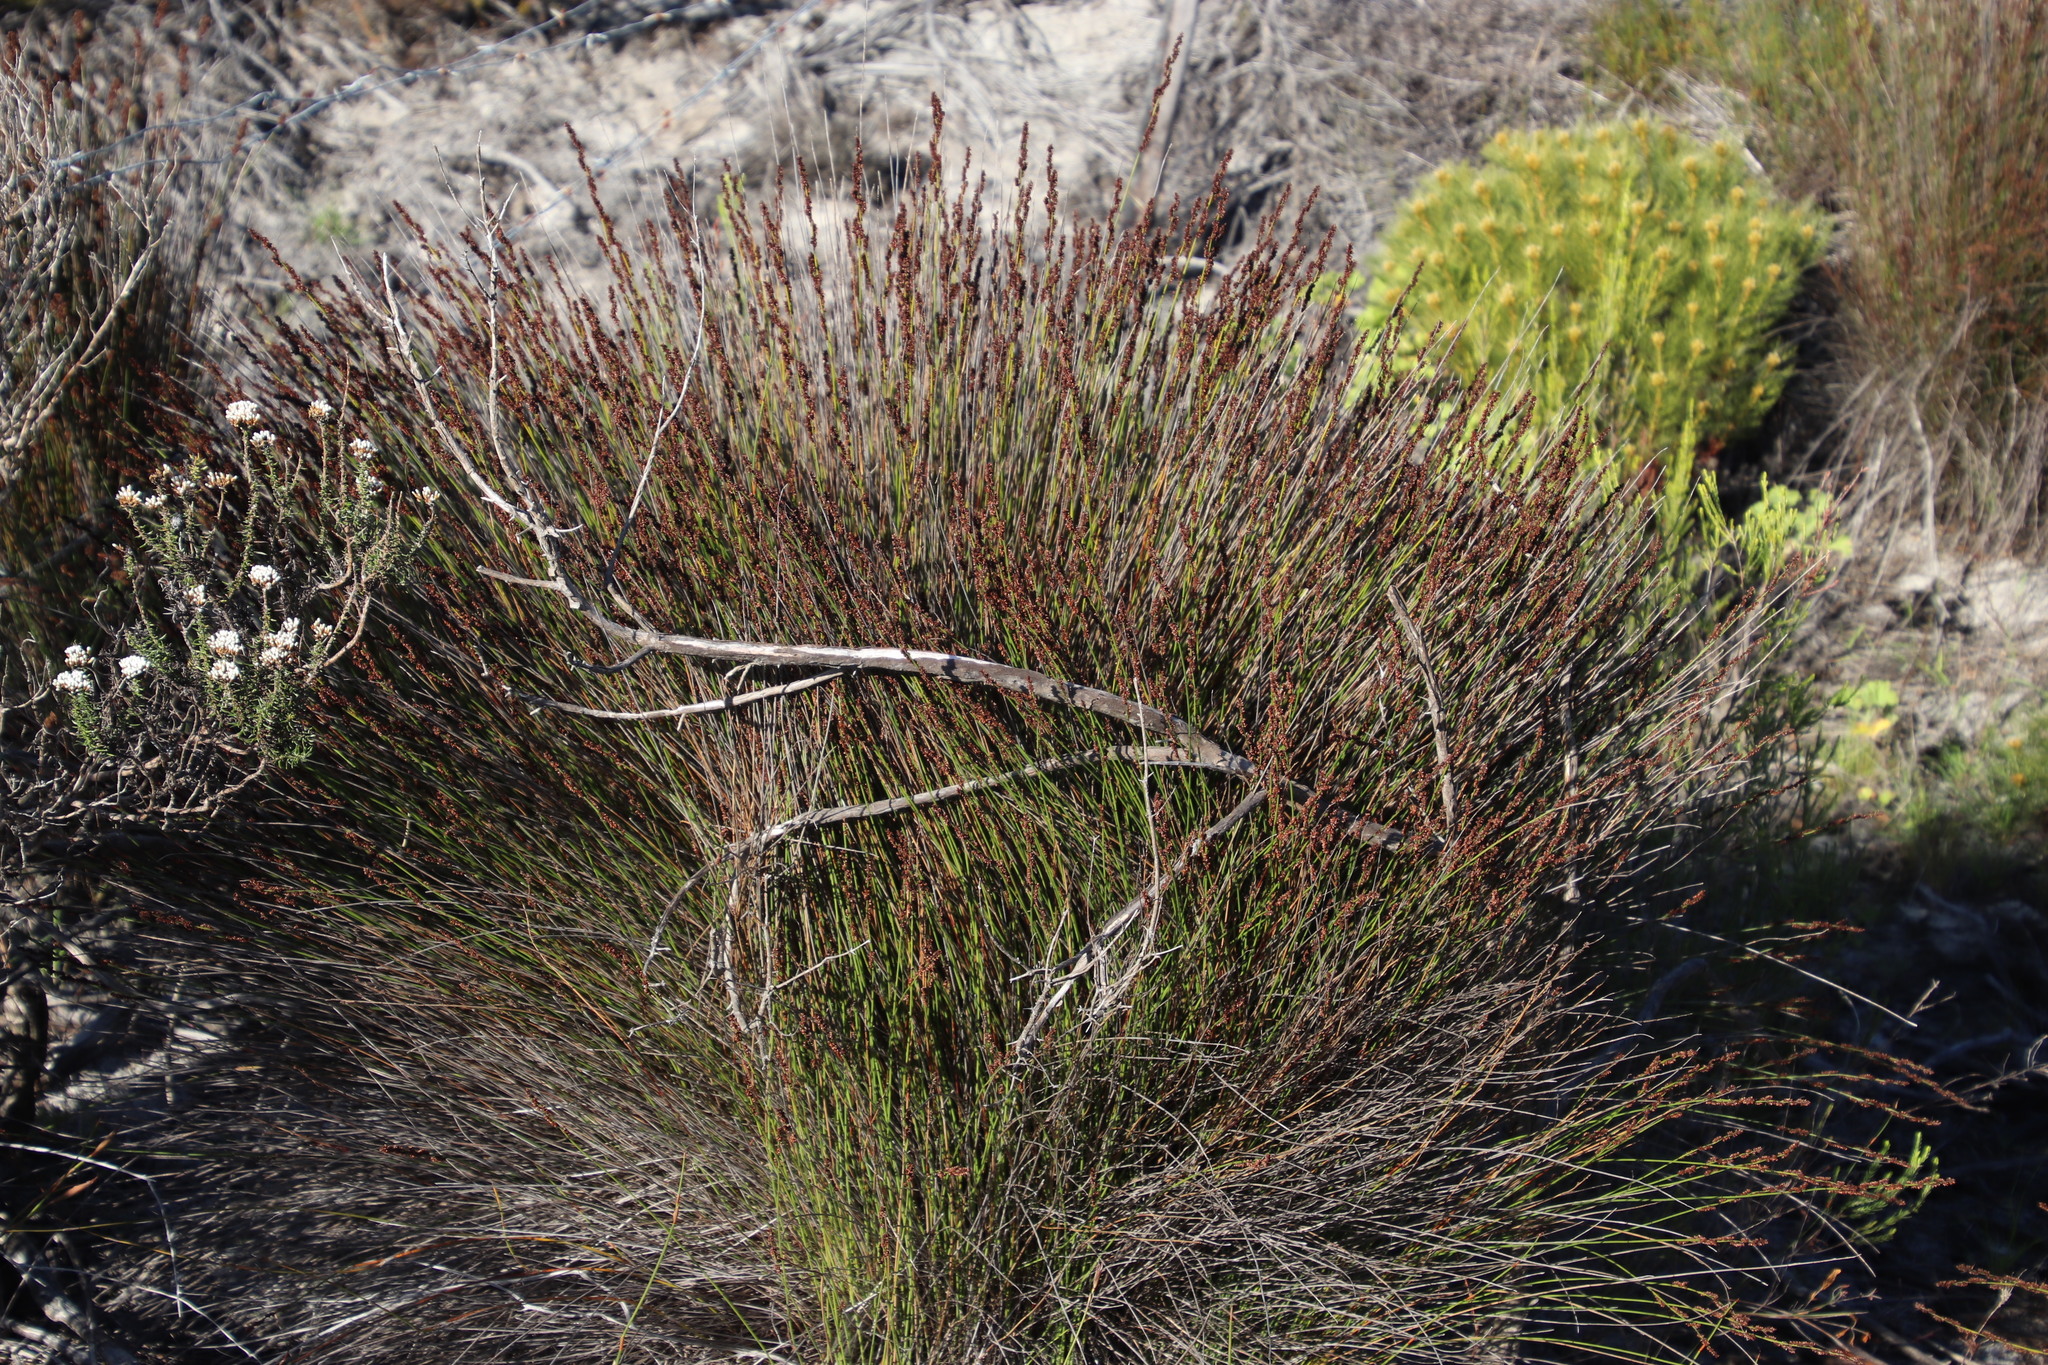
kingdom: Plantae
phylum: Tracheophyta
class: Liliopsida
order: Poales
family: Restionaceae
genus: Restio
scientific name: Restio bifurcus
